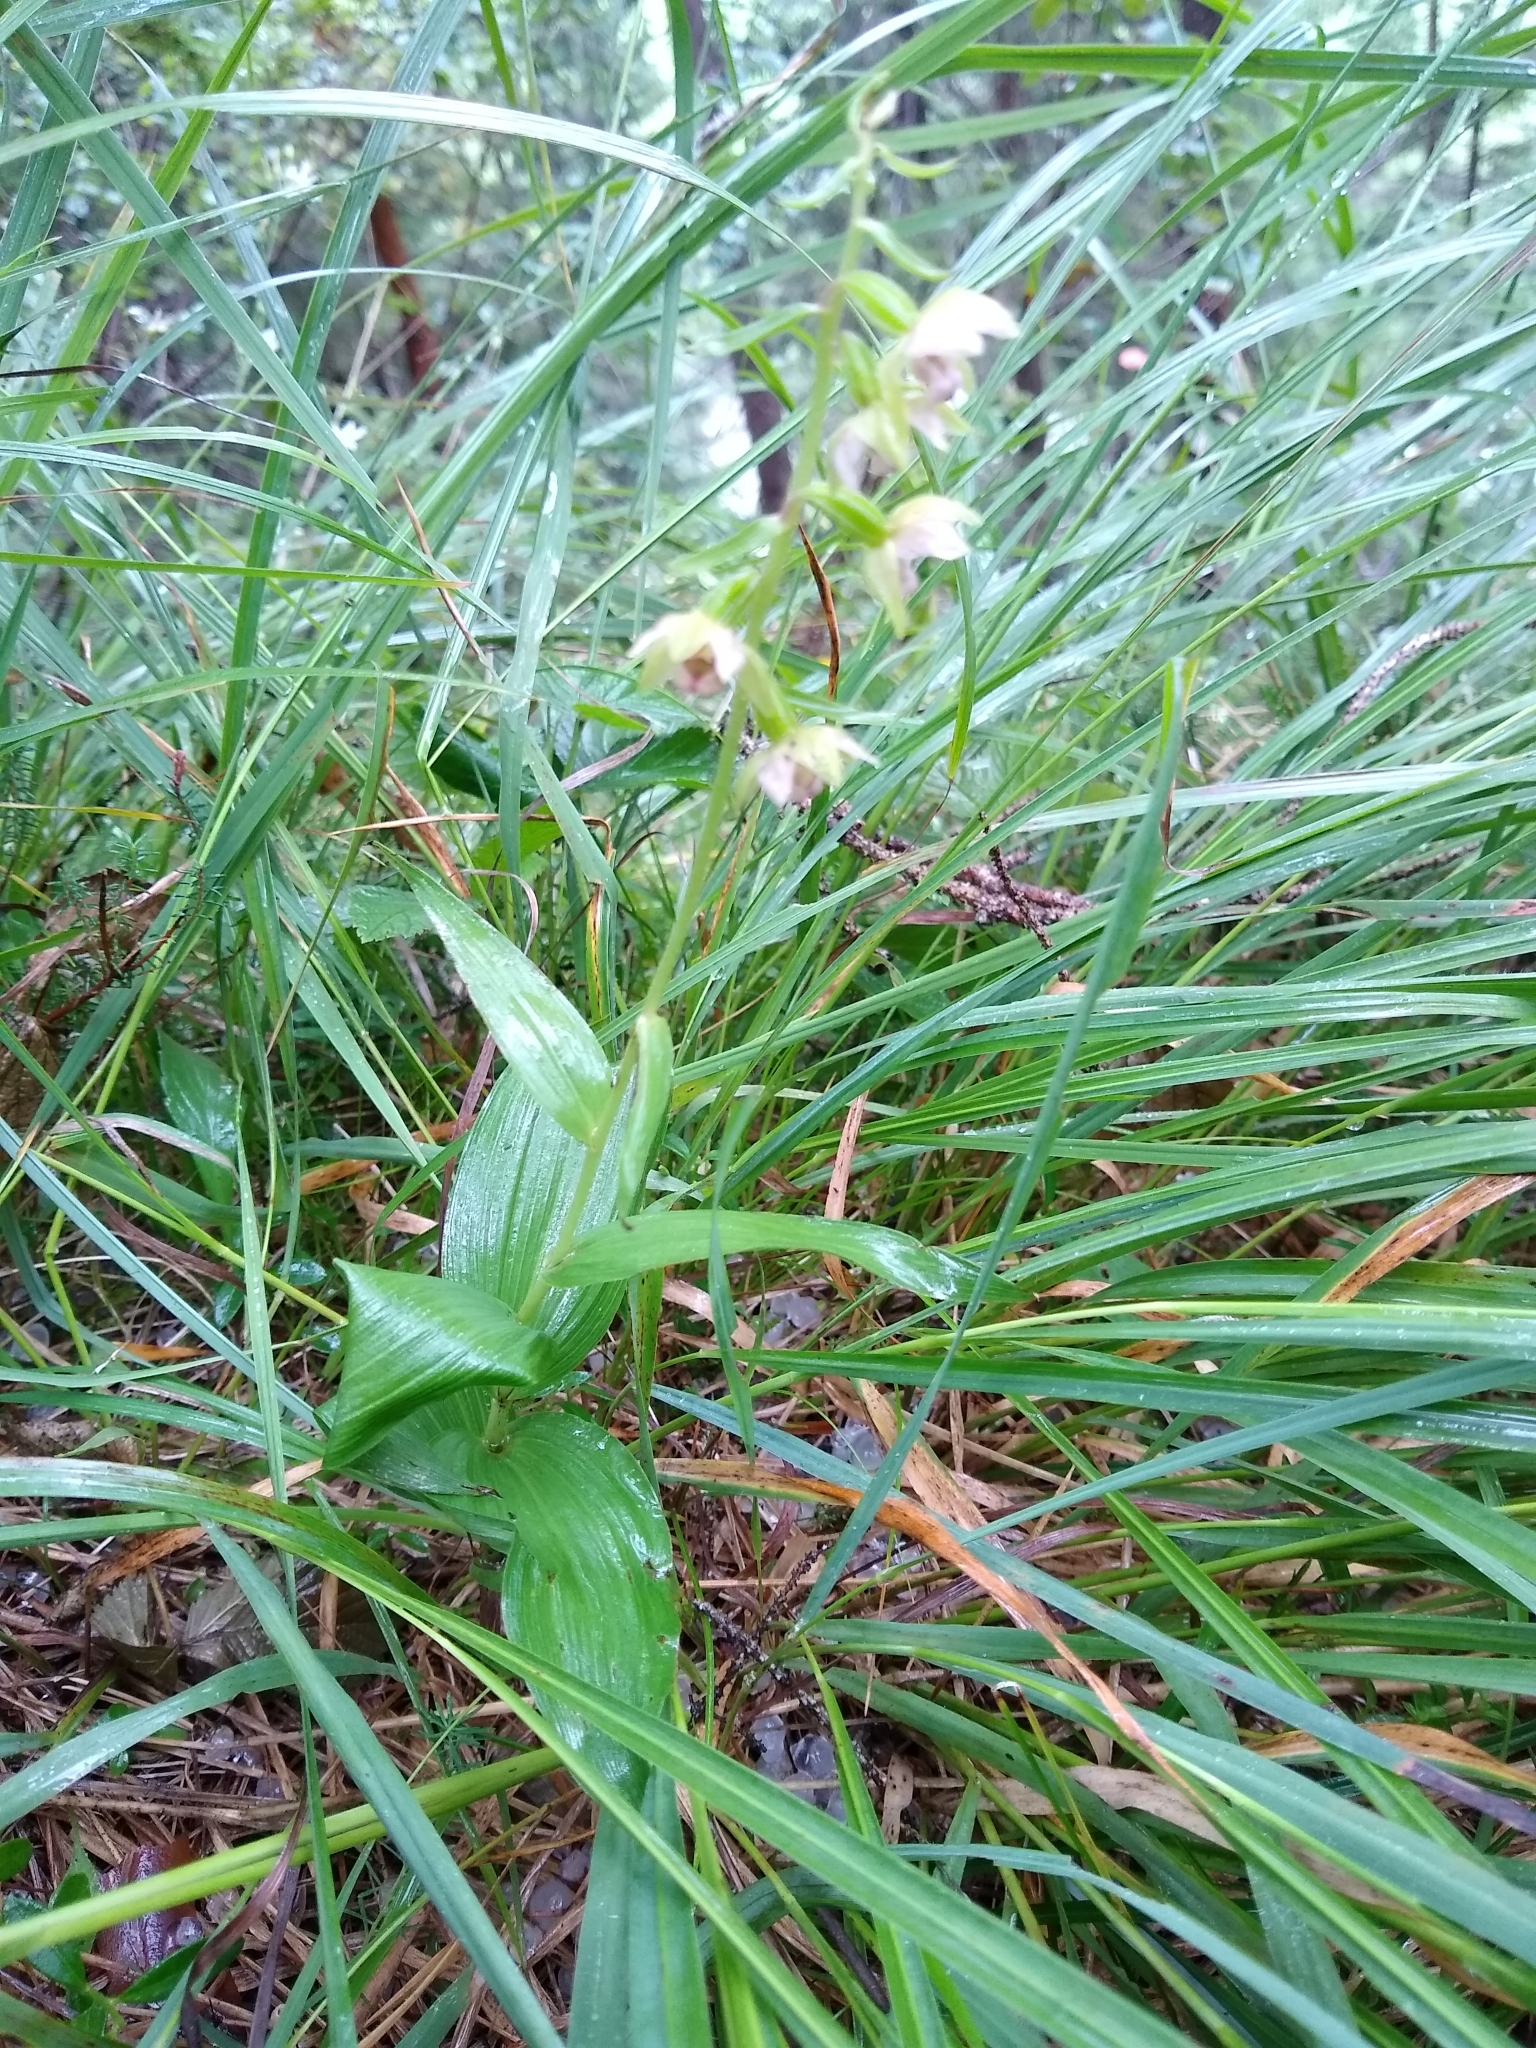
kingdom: Plantae
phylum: Tracheophyta
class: Liliopsida
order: Asparagales
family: Orchidaceae
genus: Epipactis
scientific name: Epipactis helleborine
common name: Broad-leaved helleborine
